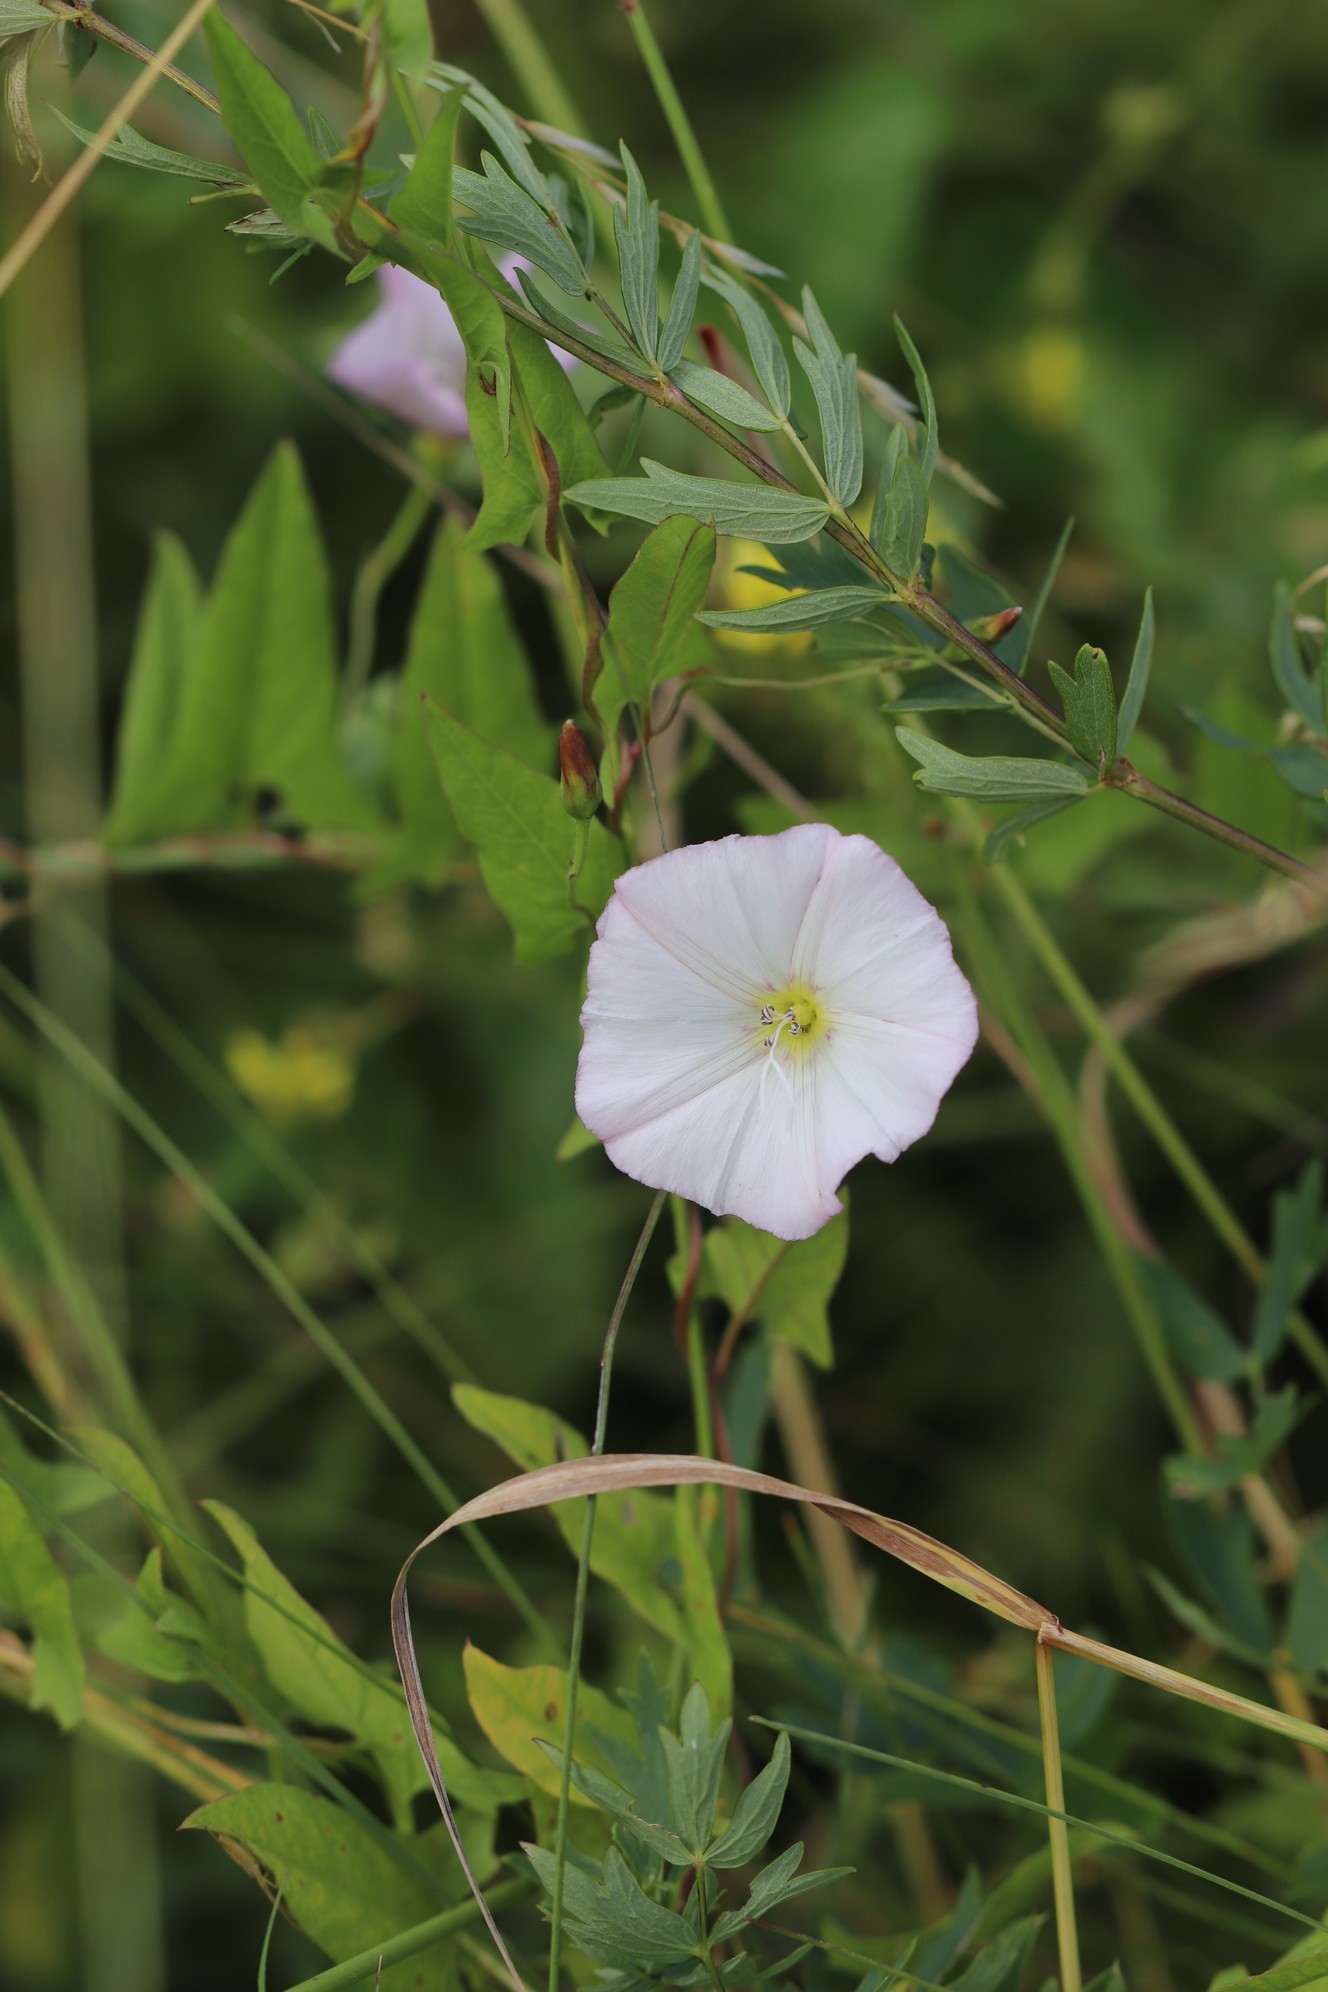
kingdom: Plantae
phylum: Tracheophyta
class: Magnoliopsida
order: Solanales
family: Convolvulaceae
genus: Convolvulus
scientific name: Convolvulus arvensis
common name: Field bindweed
